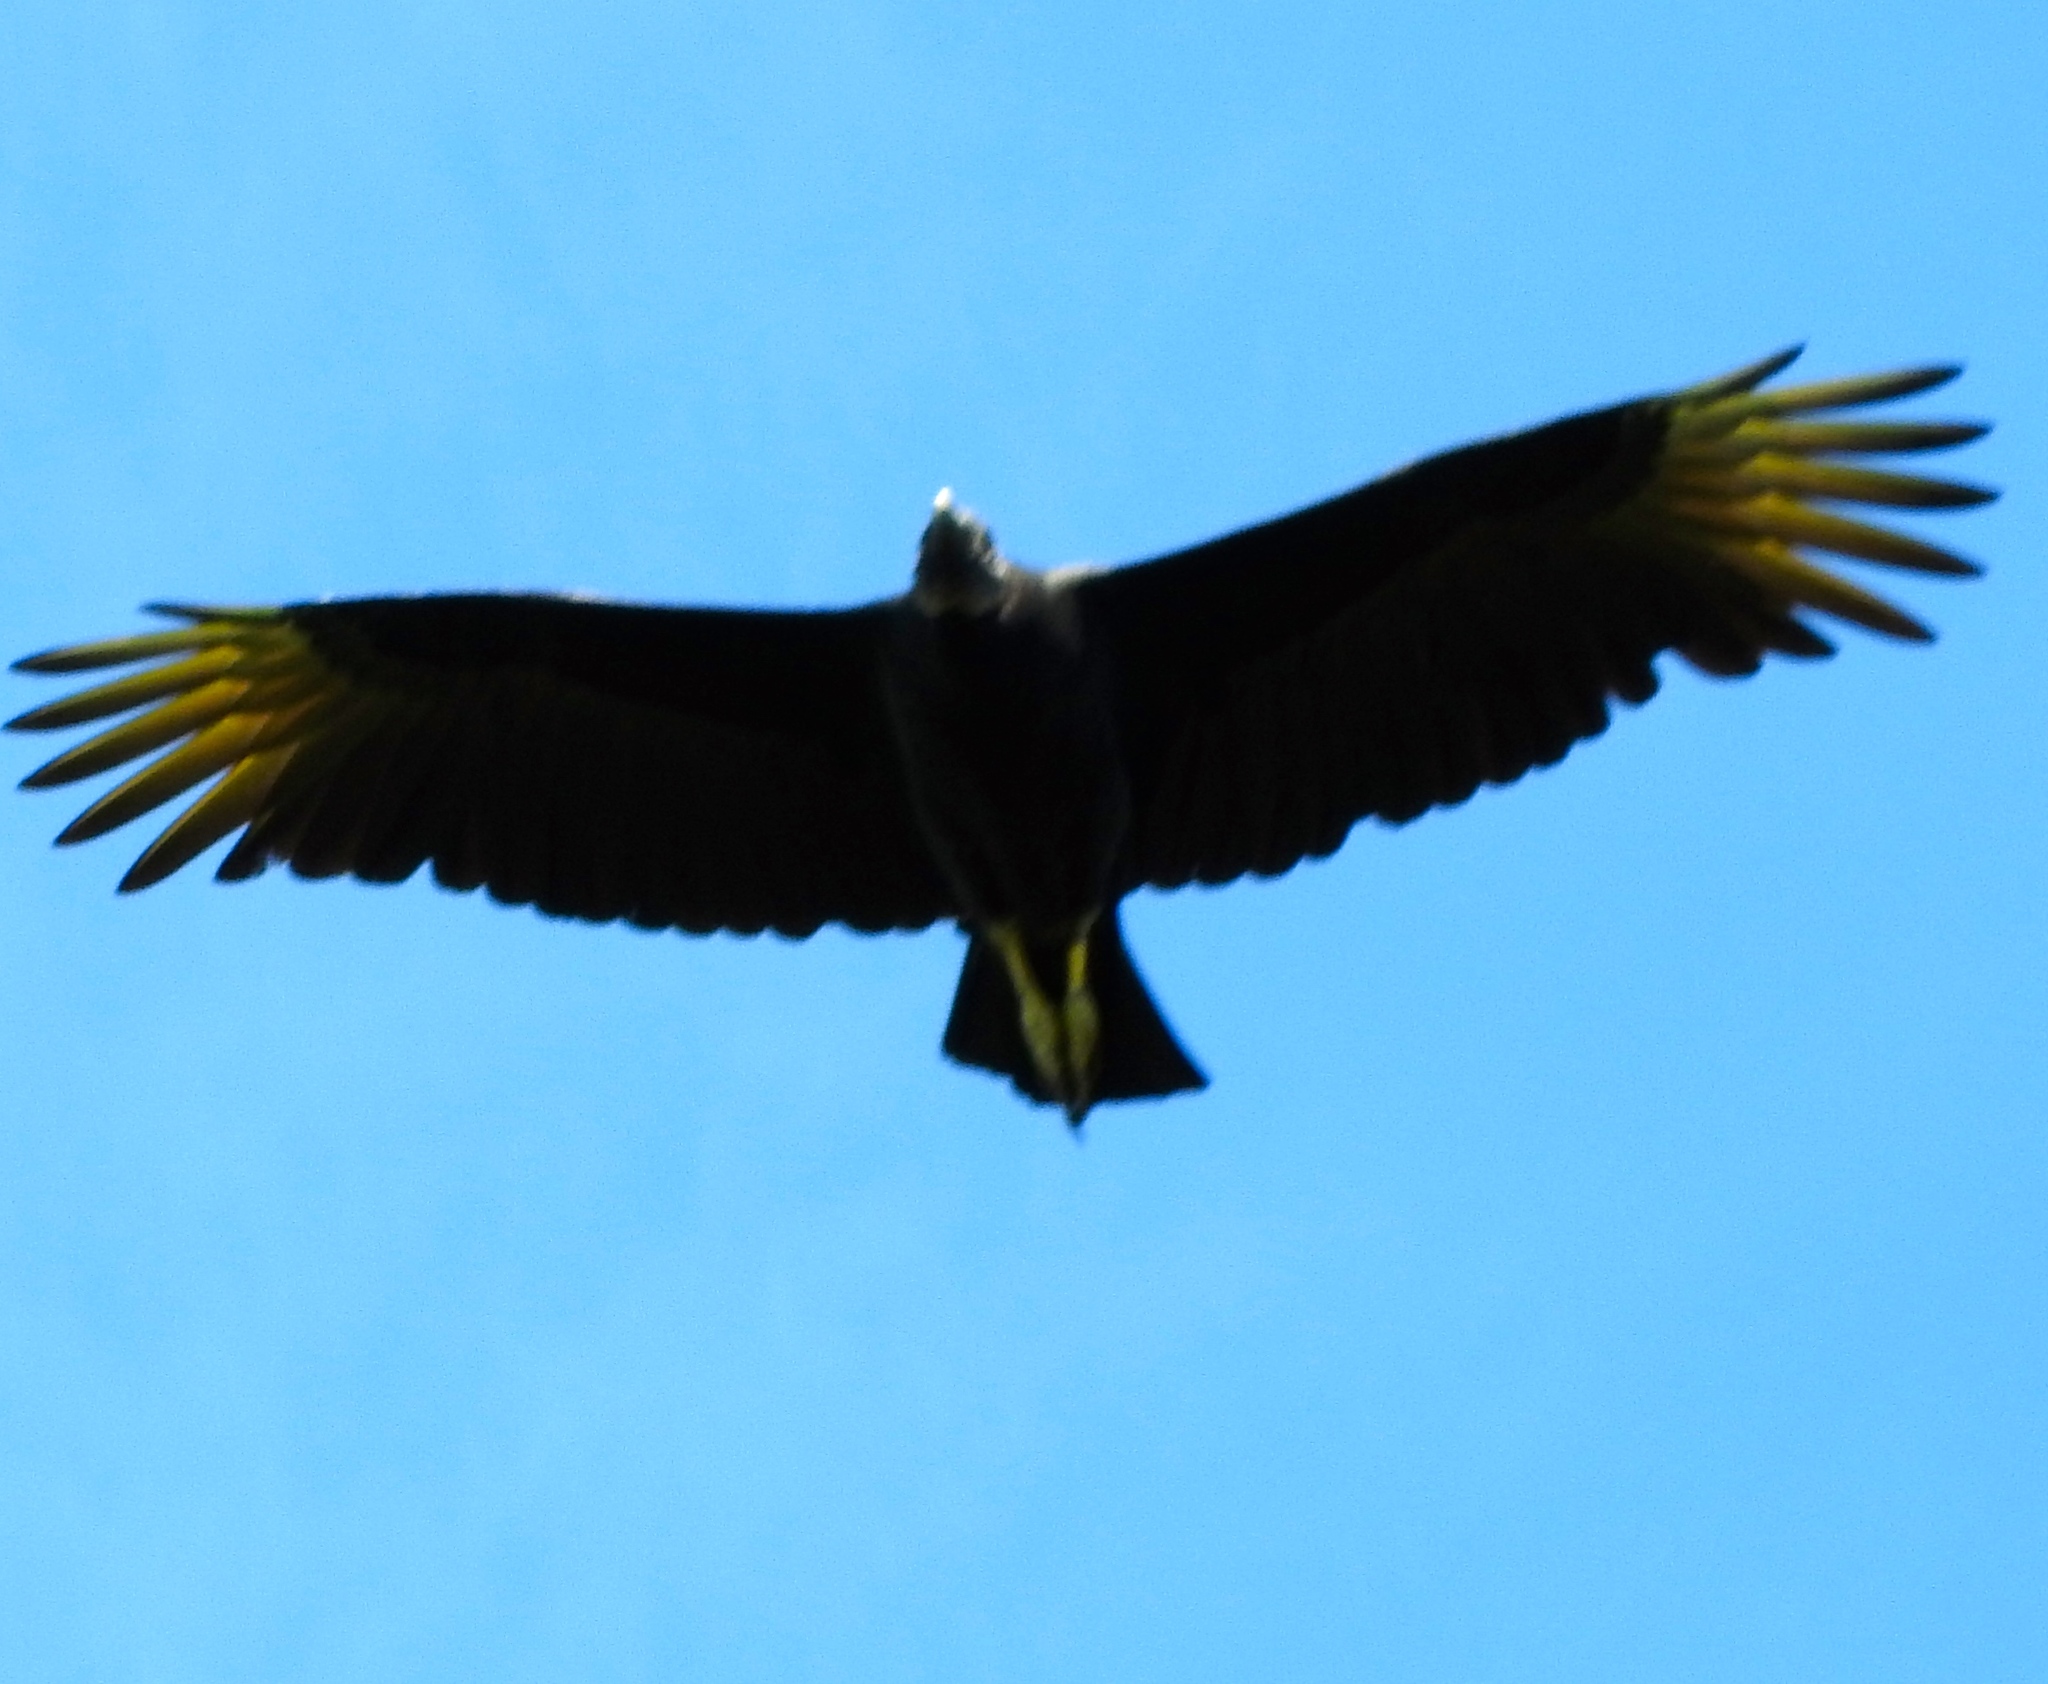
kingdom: Animalia
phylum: Chordata
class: Aves
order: Accipitriformes
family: Cathartidae
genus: Coragyps
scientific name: Coragyps atratus
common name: Black vulture
